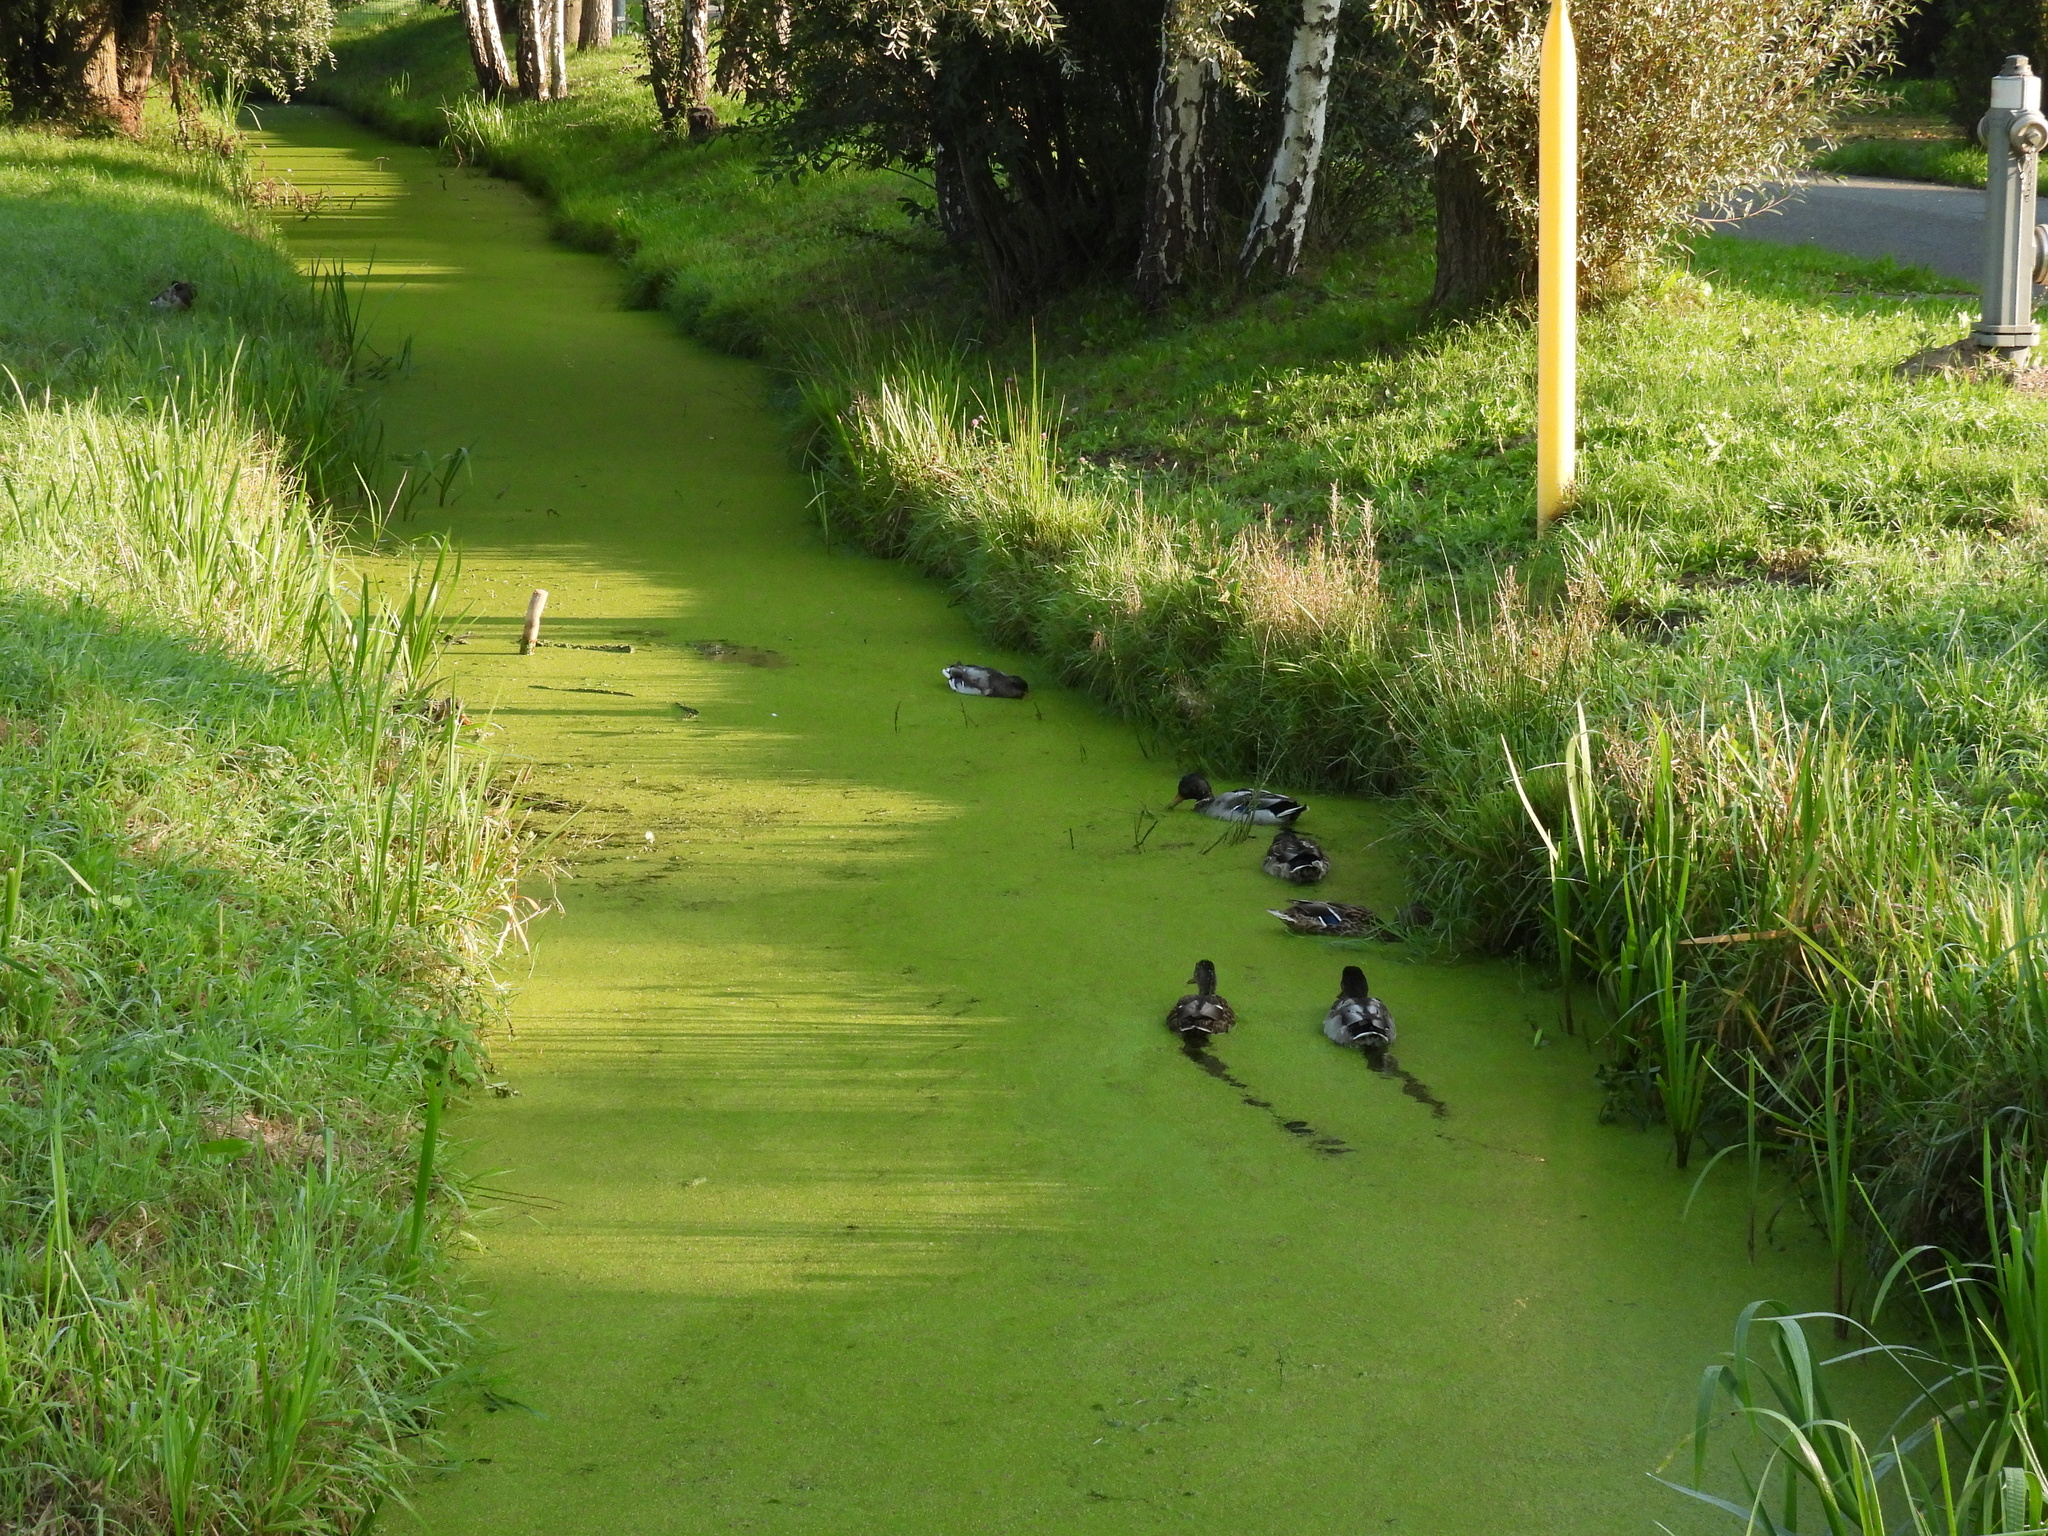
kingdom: Animalia
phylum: Chordata
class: Aves
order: Anseriformes
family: Anatidae
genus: Anas
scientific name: Anas platyrhynchos
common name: Mallard
